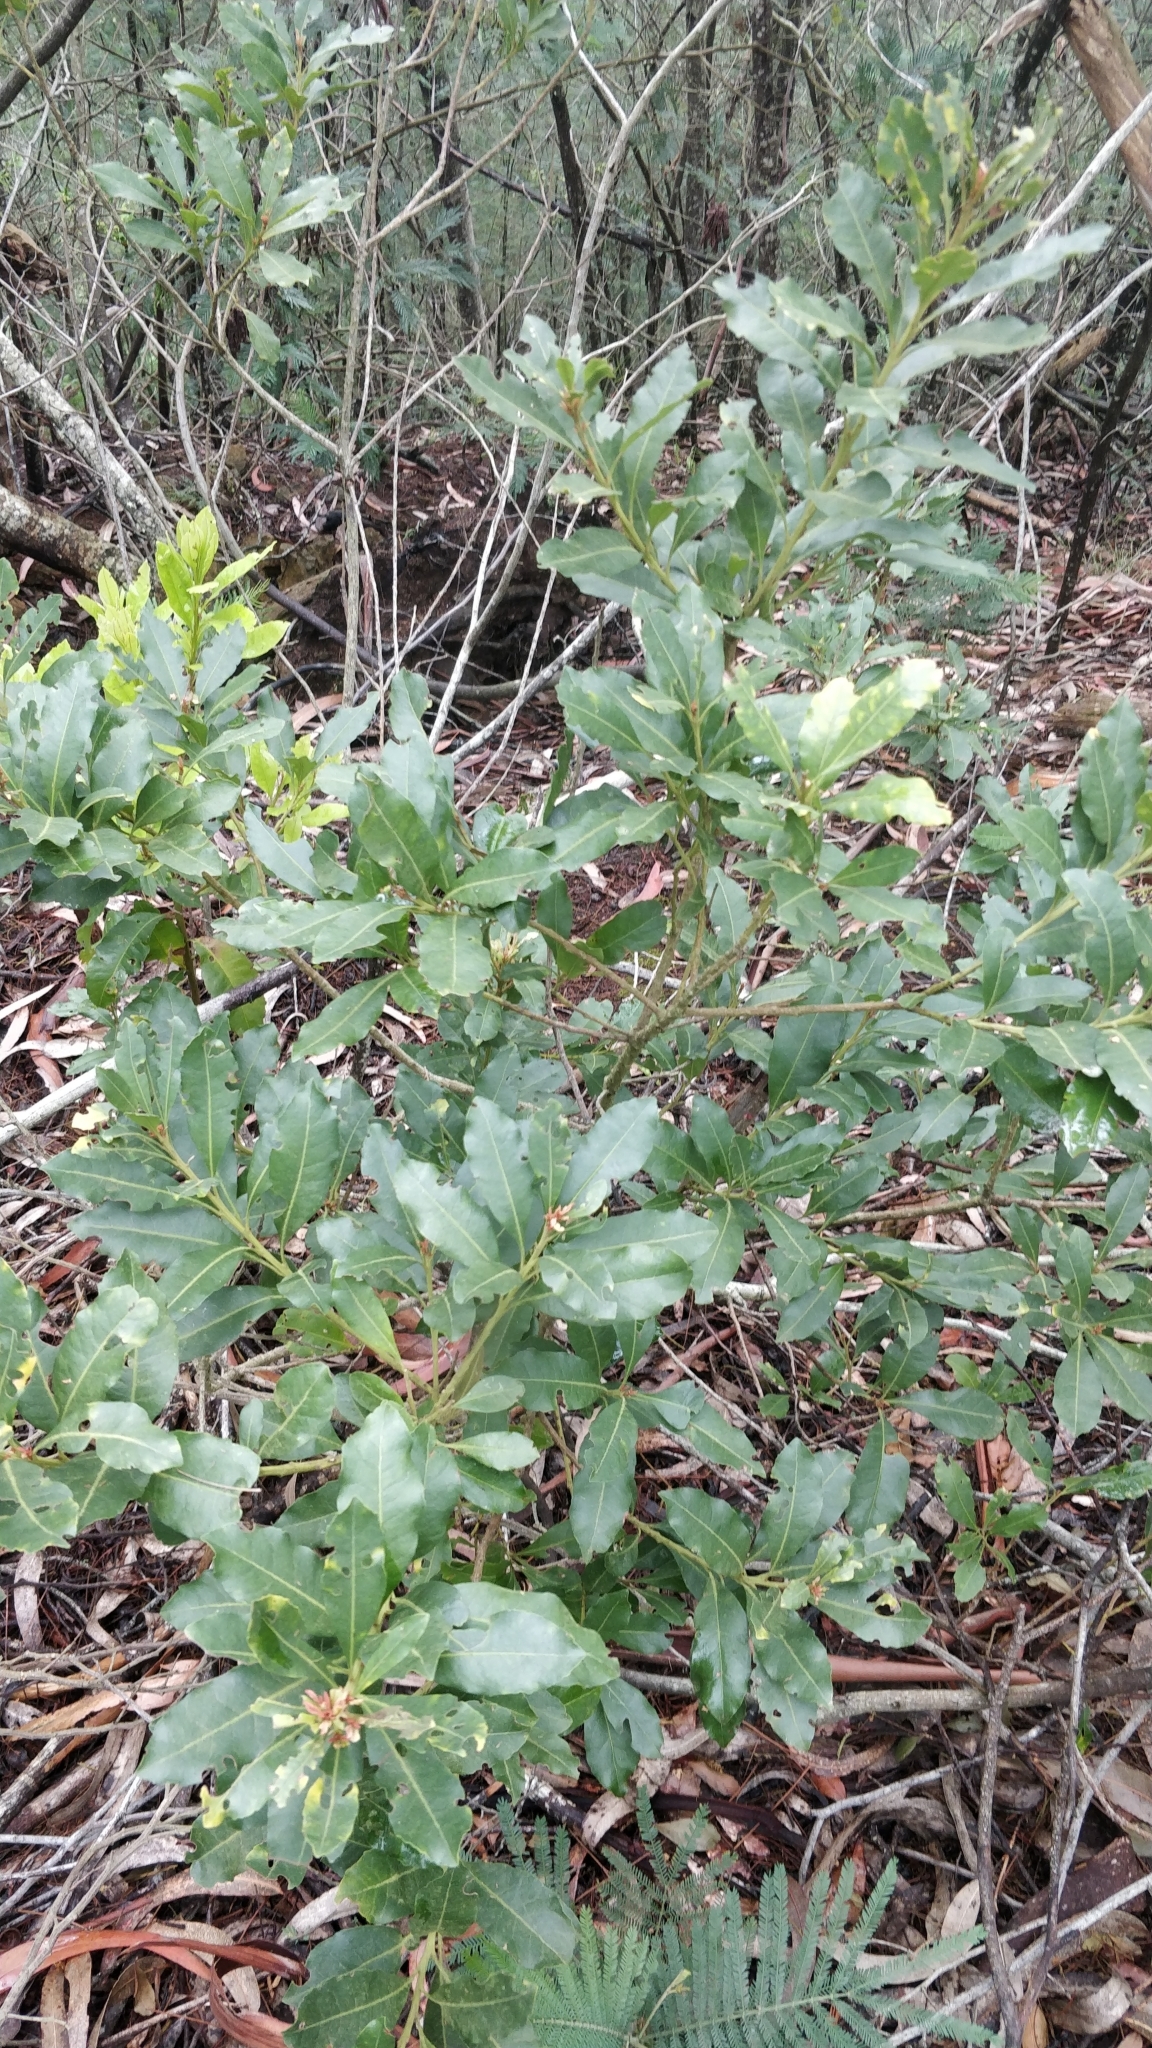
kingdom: Plantae
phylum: Tracheophyta
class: Magnoliopsida
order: Fagales
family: Myricaceae
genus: Morella
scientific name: Morella faya
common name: Firetree
